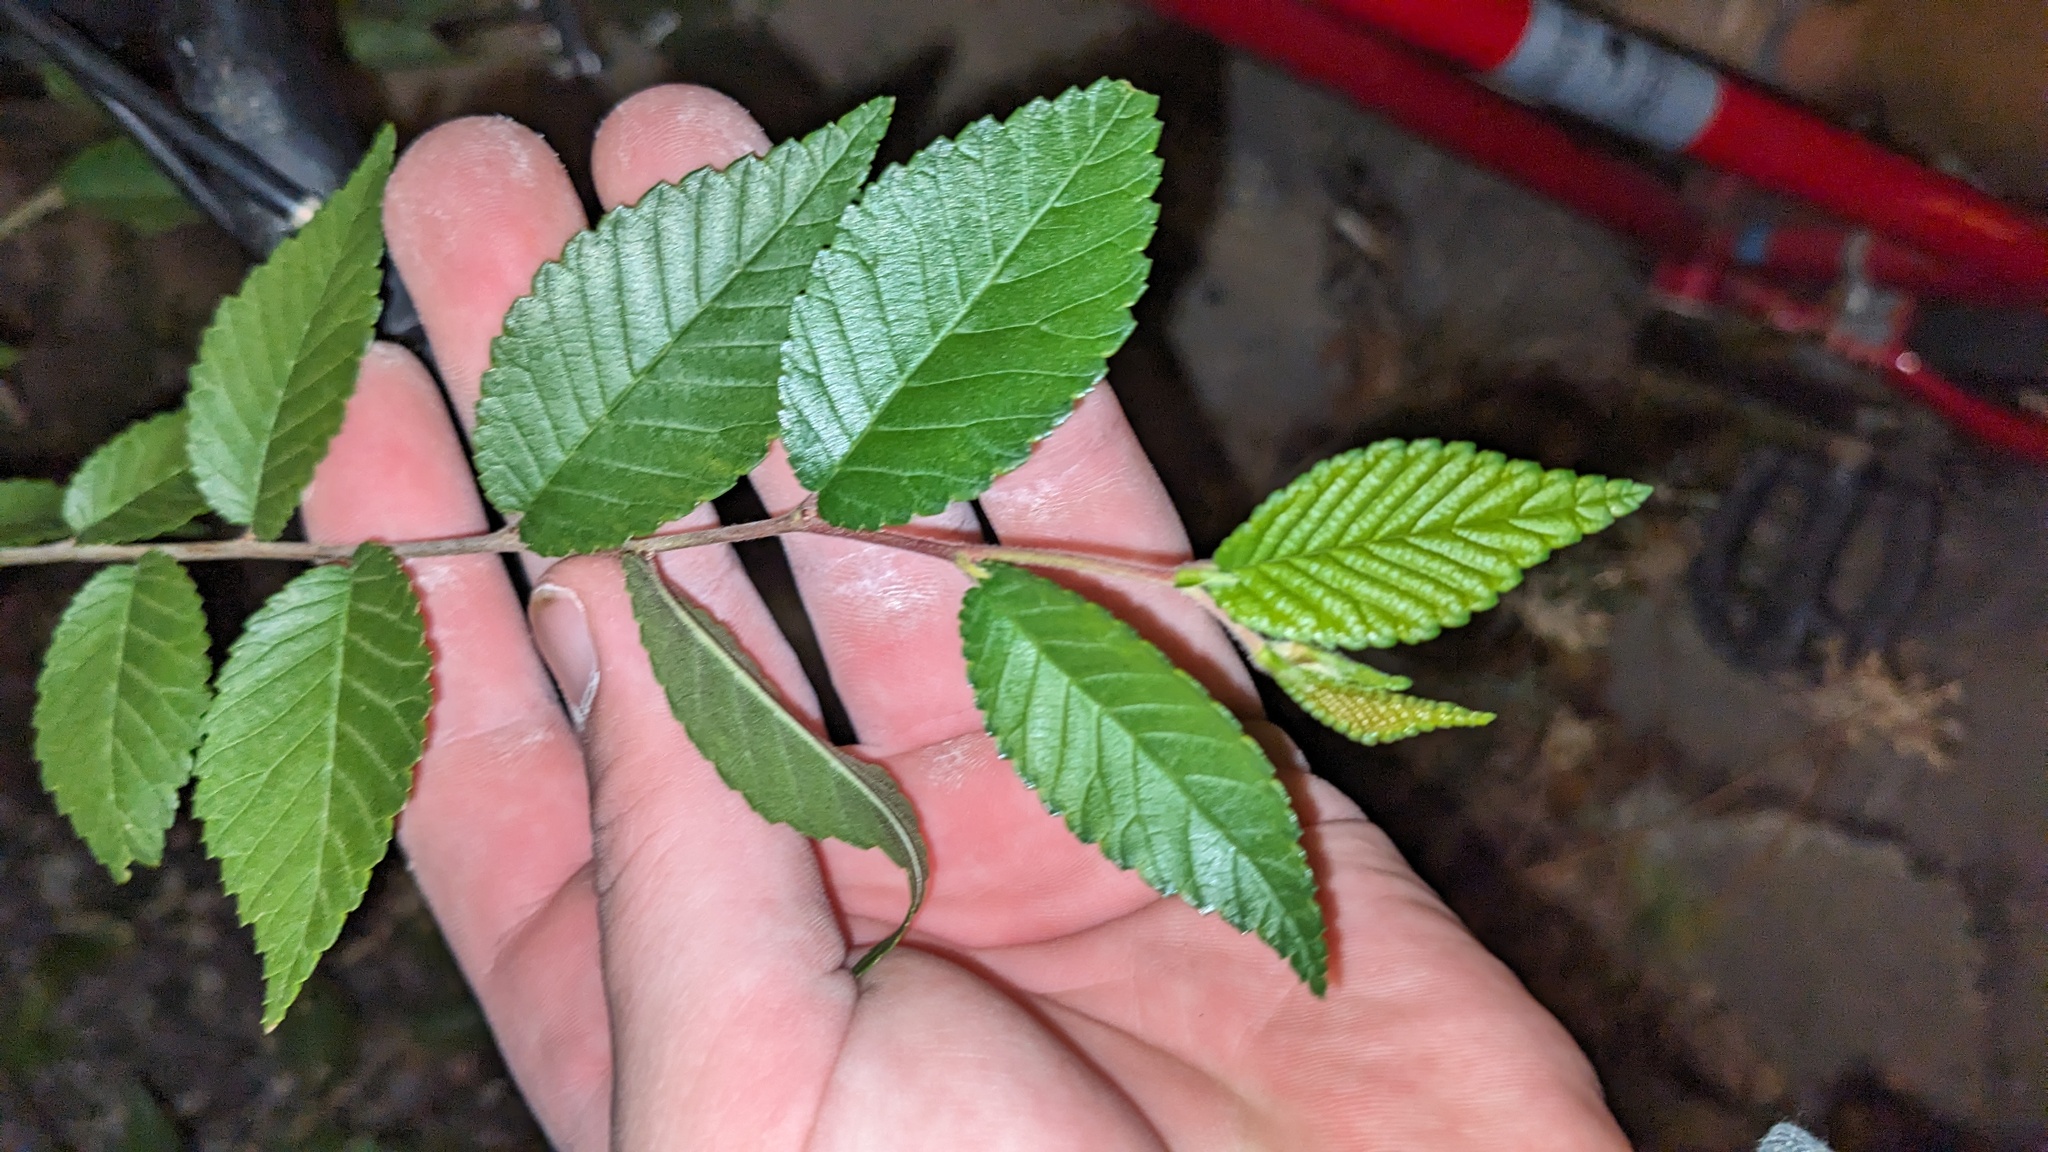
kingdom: Plantae
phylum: Tracheophyta
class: Magnoliopsida
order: Rosales
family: Ulmaceae
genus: Ulmus
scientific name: Ulmus pumila
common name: Siberian elm
